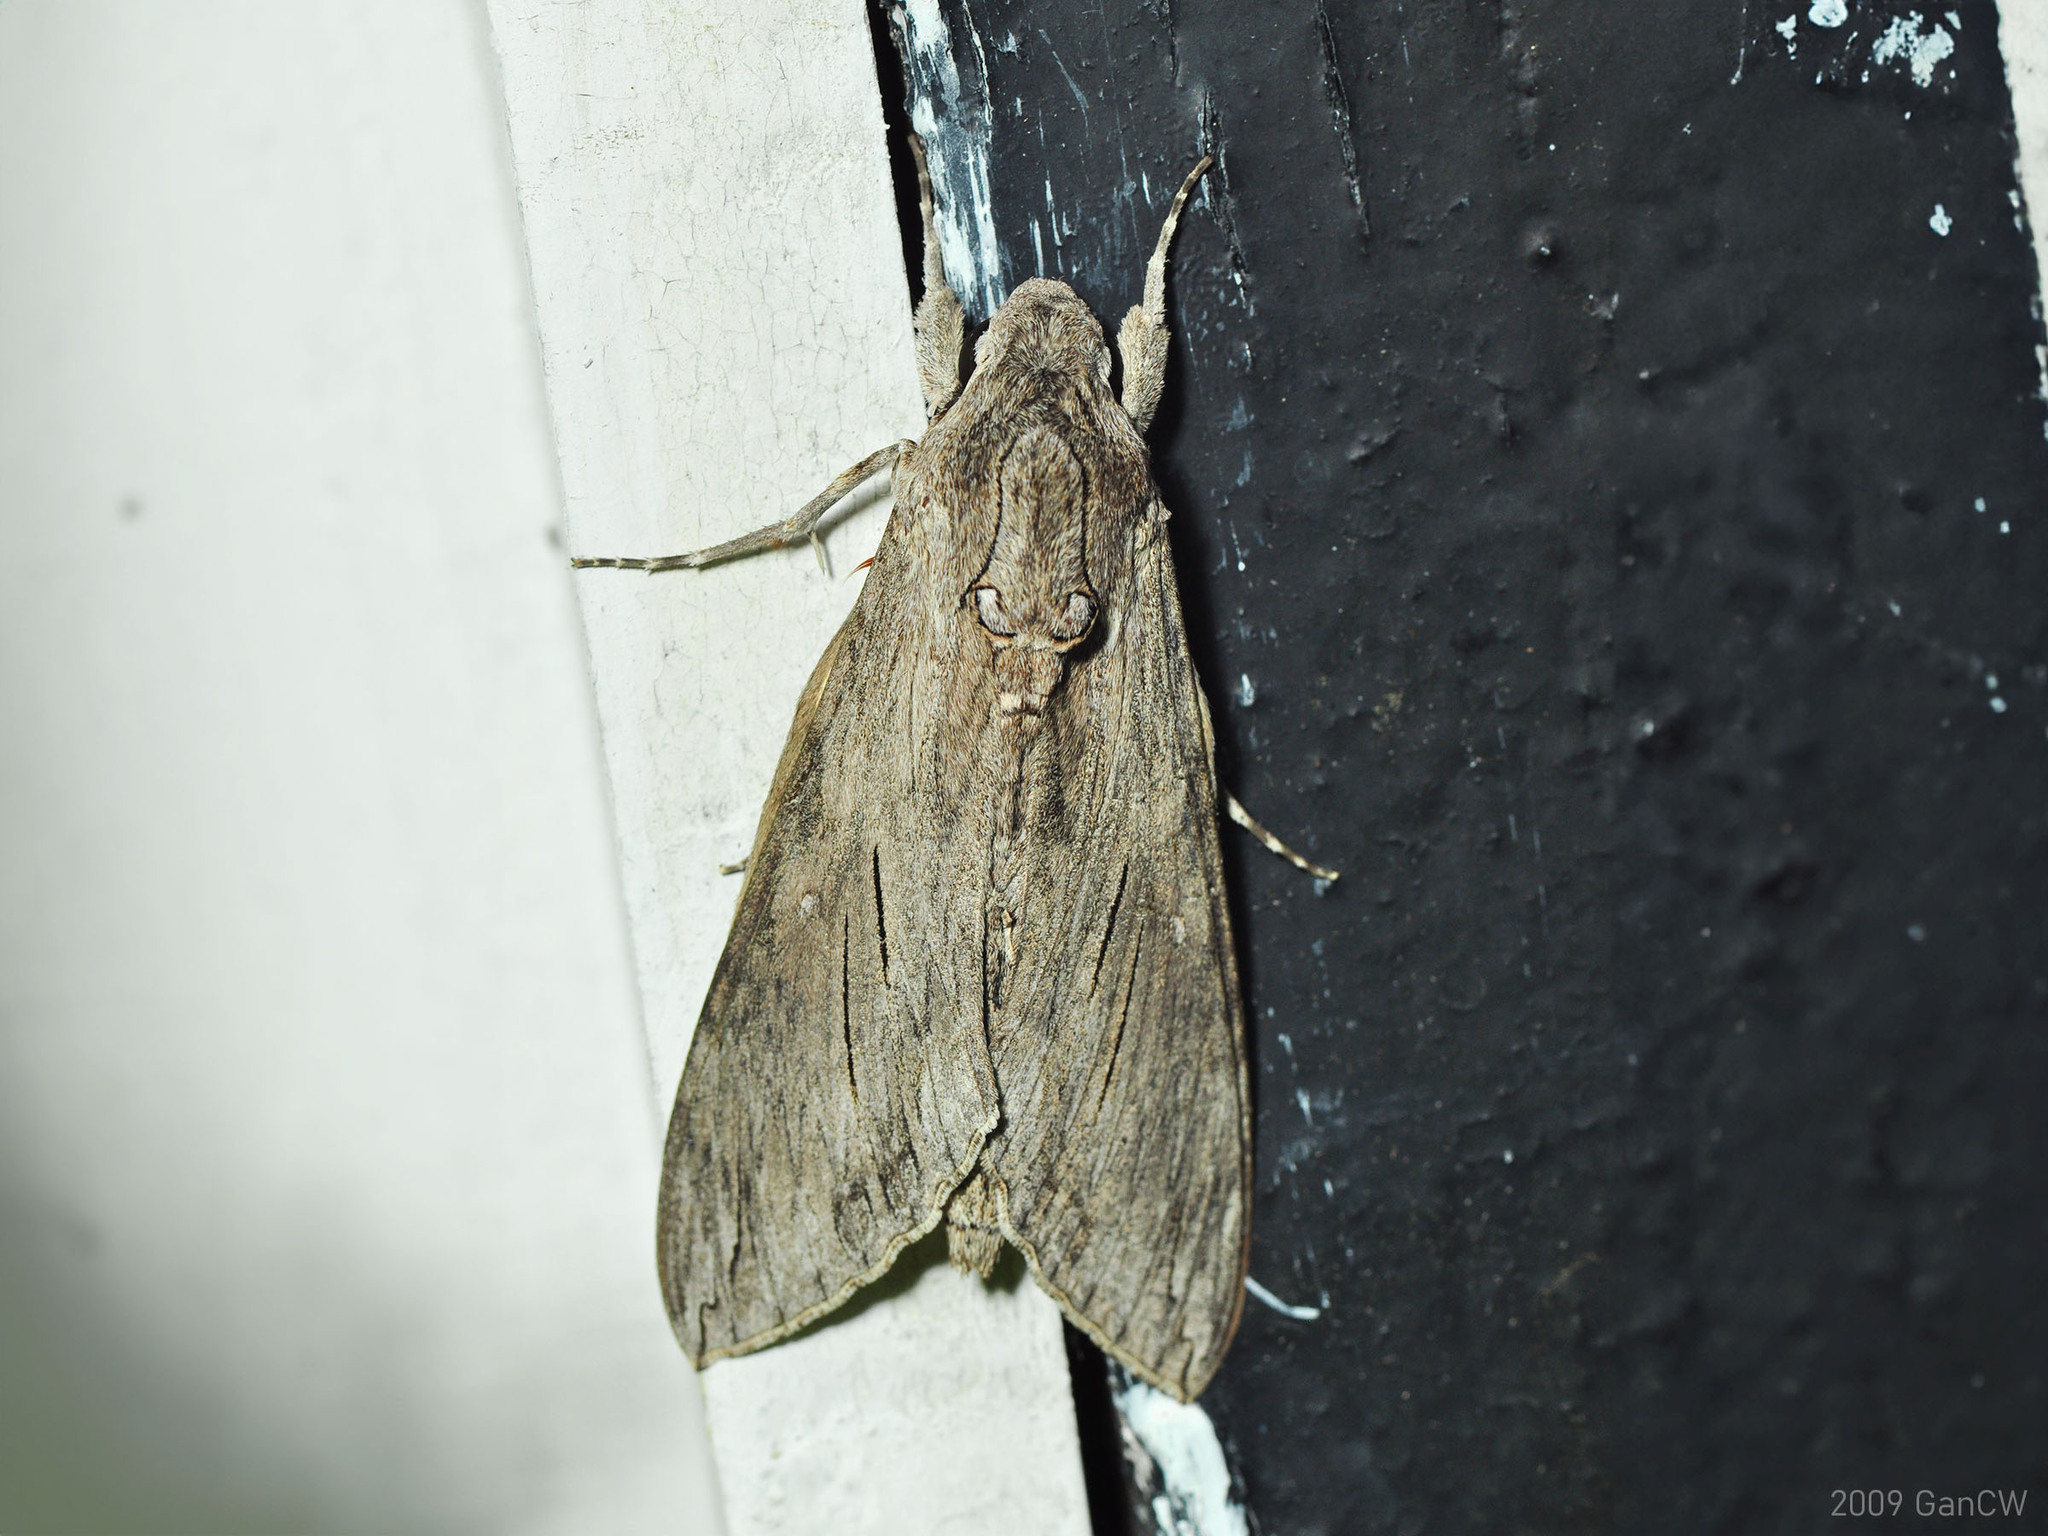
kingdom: Animalia
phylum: Arthropoda
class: Insecta
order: Lepidoptera
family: Sphingidae
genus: Agrius
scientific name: Agrius convolvuli
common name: Convolvulus hawkmoth
